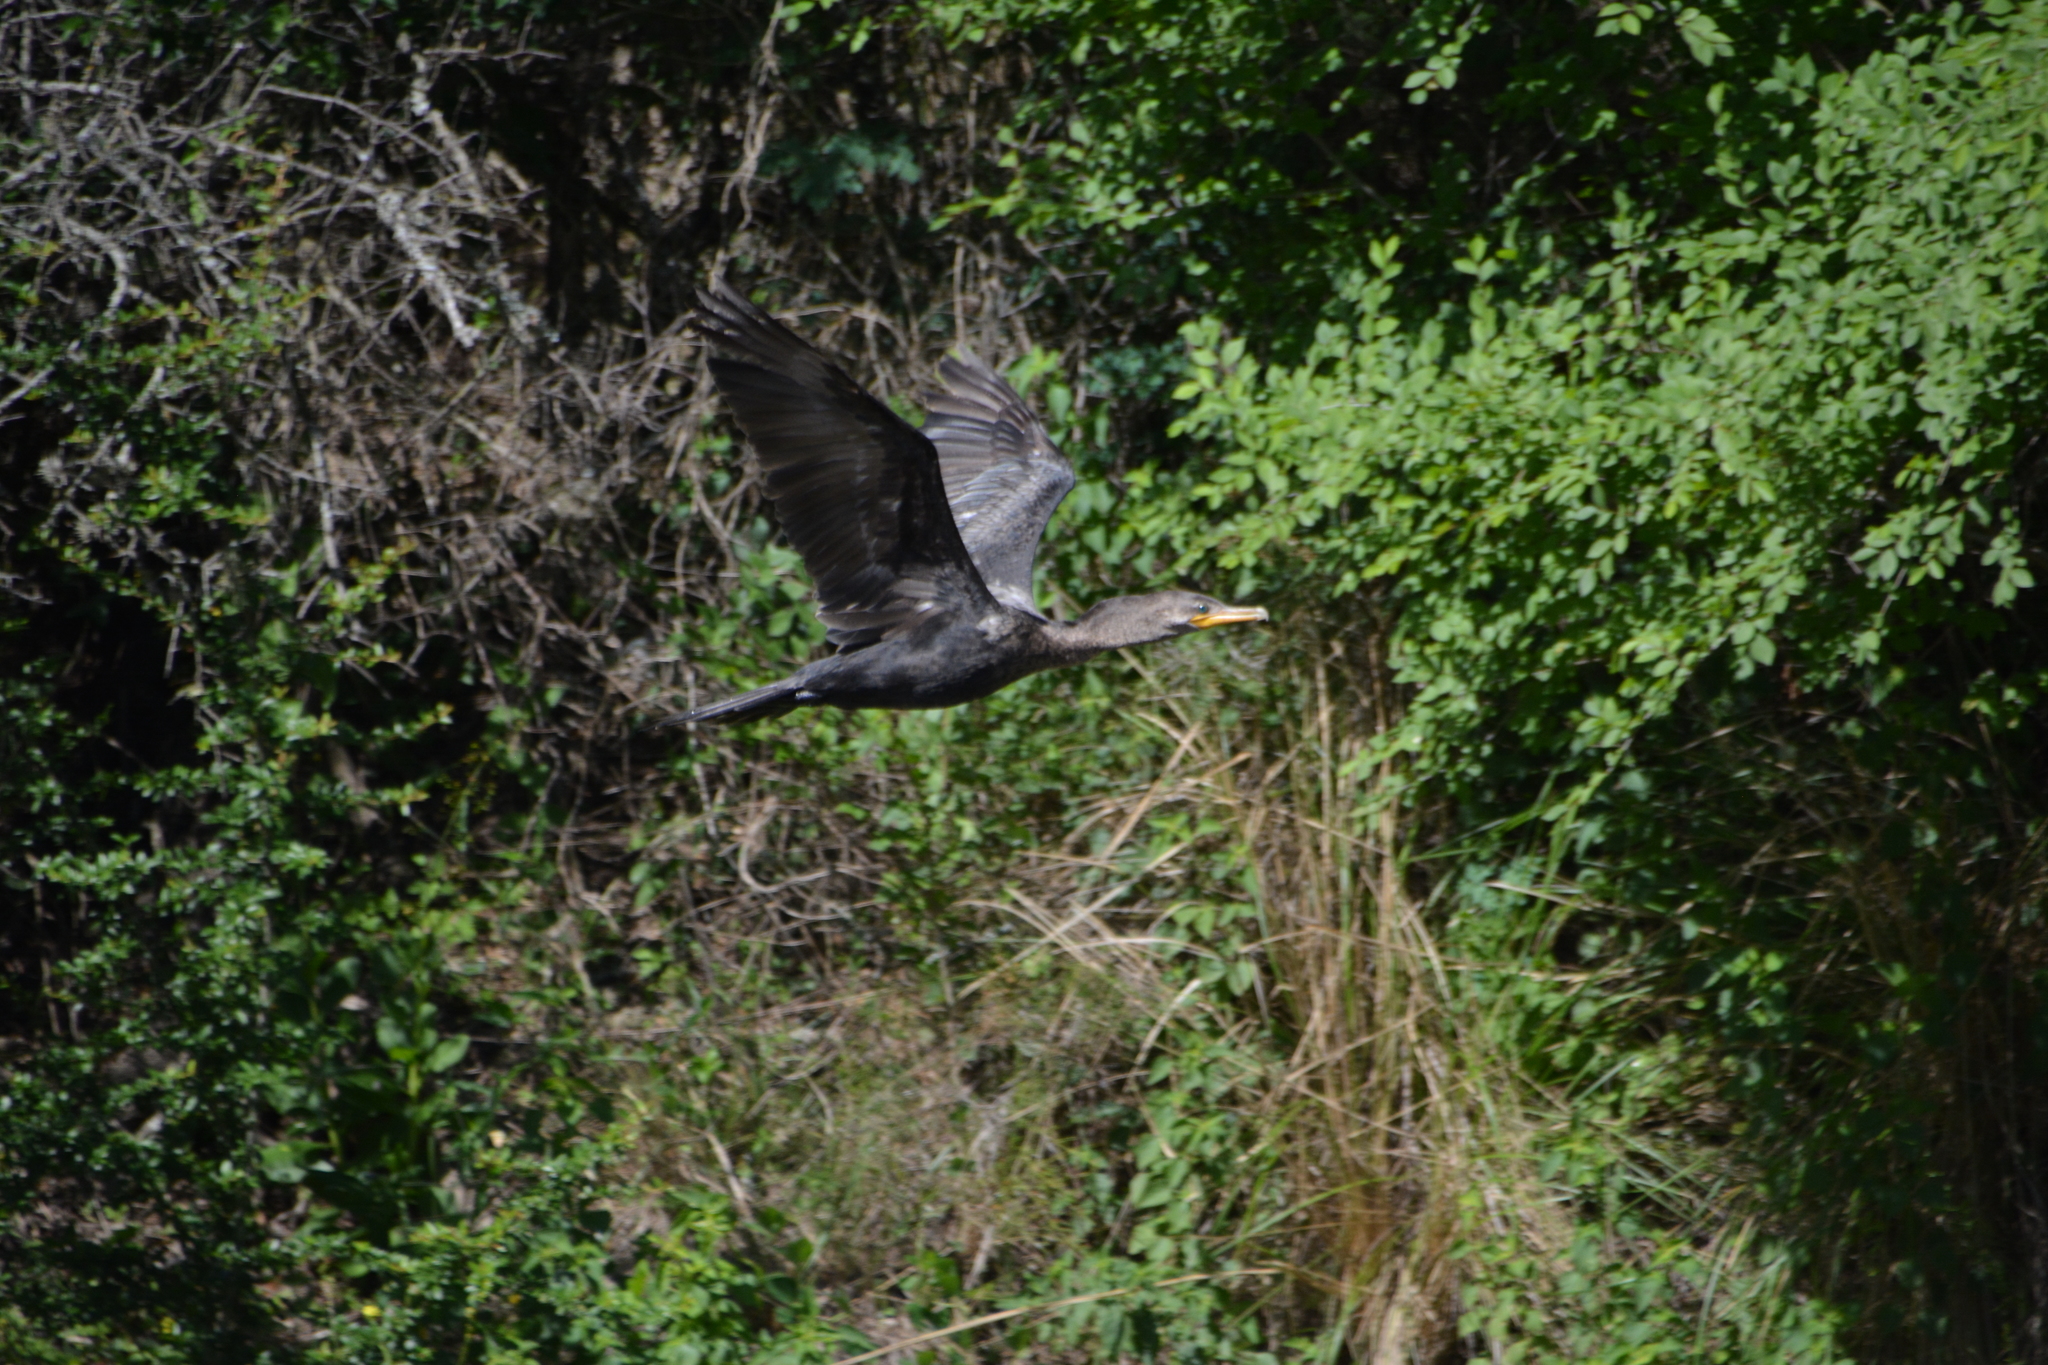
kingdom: Animalia
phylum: Chordata
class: Aves
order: Suliformes
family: Phalacrocoracidae
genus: Phalacrocorax
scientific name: Phalacrocorax brasilianus
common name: Neotropic cormorant
